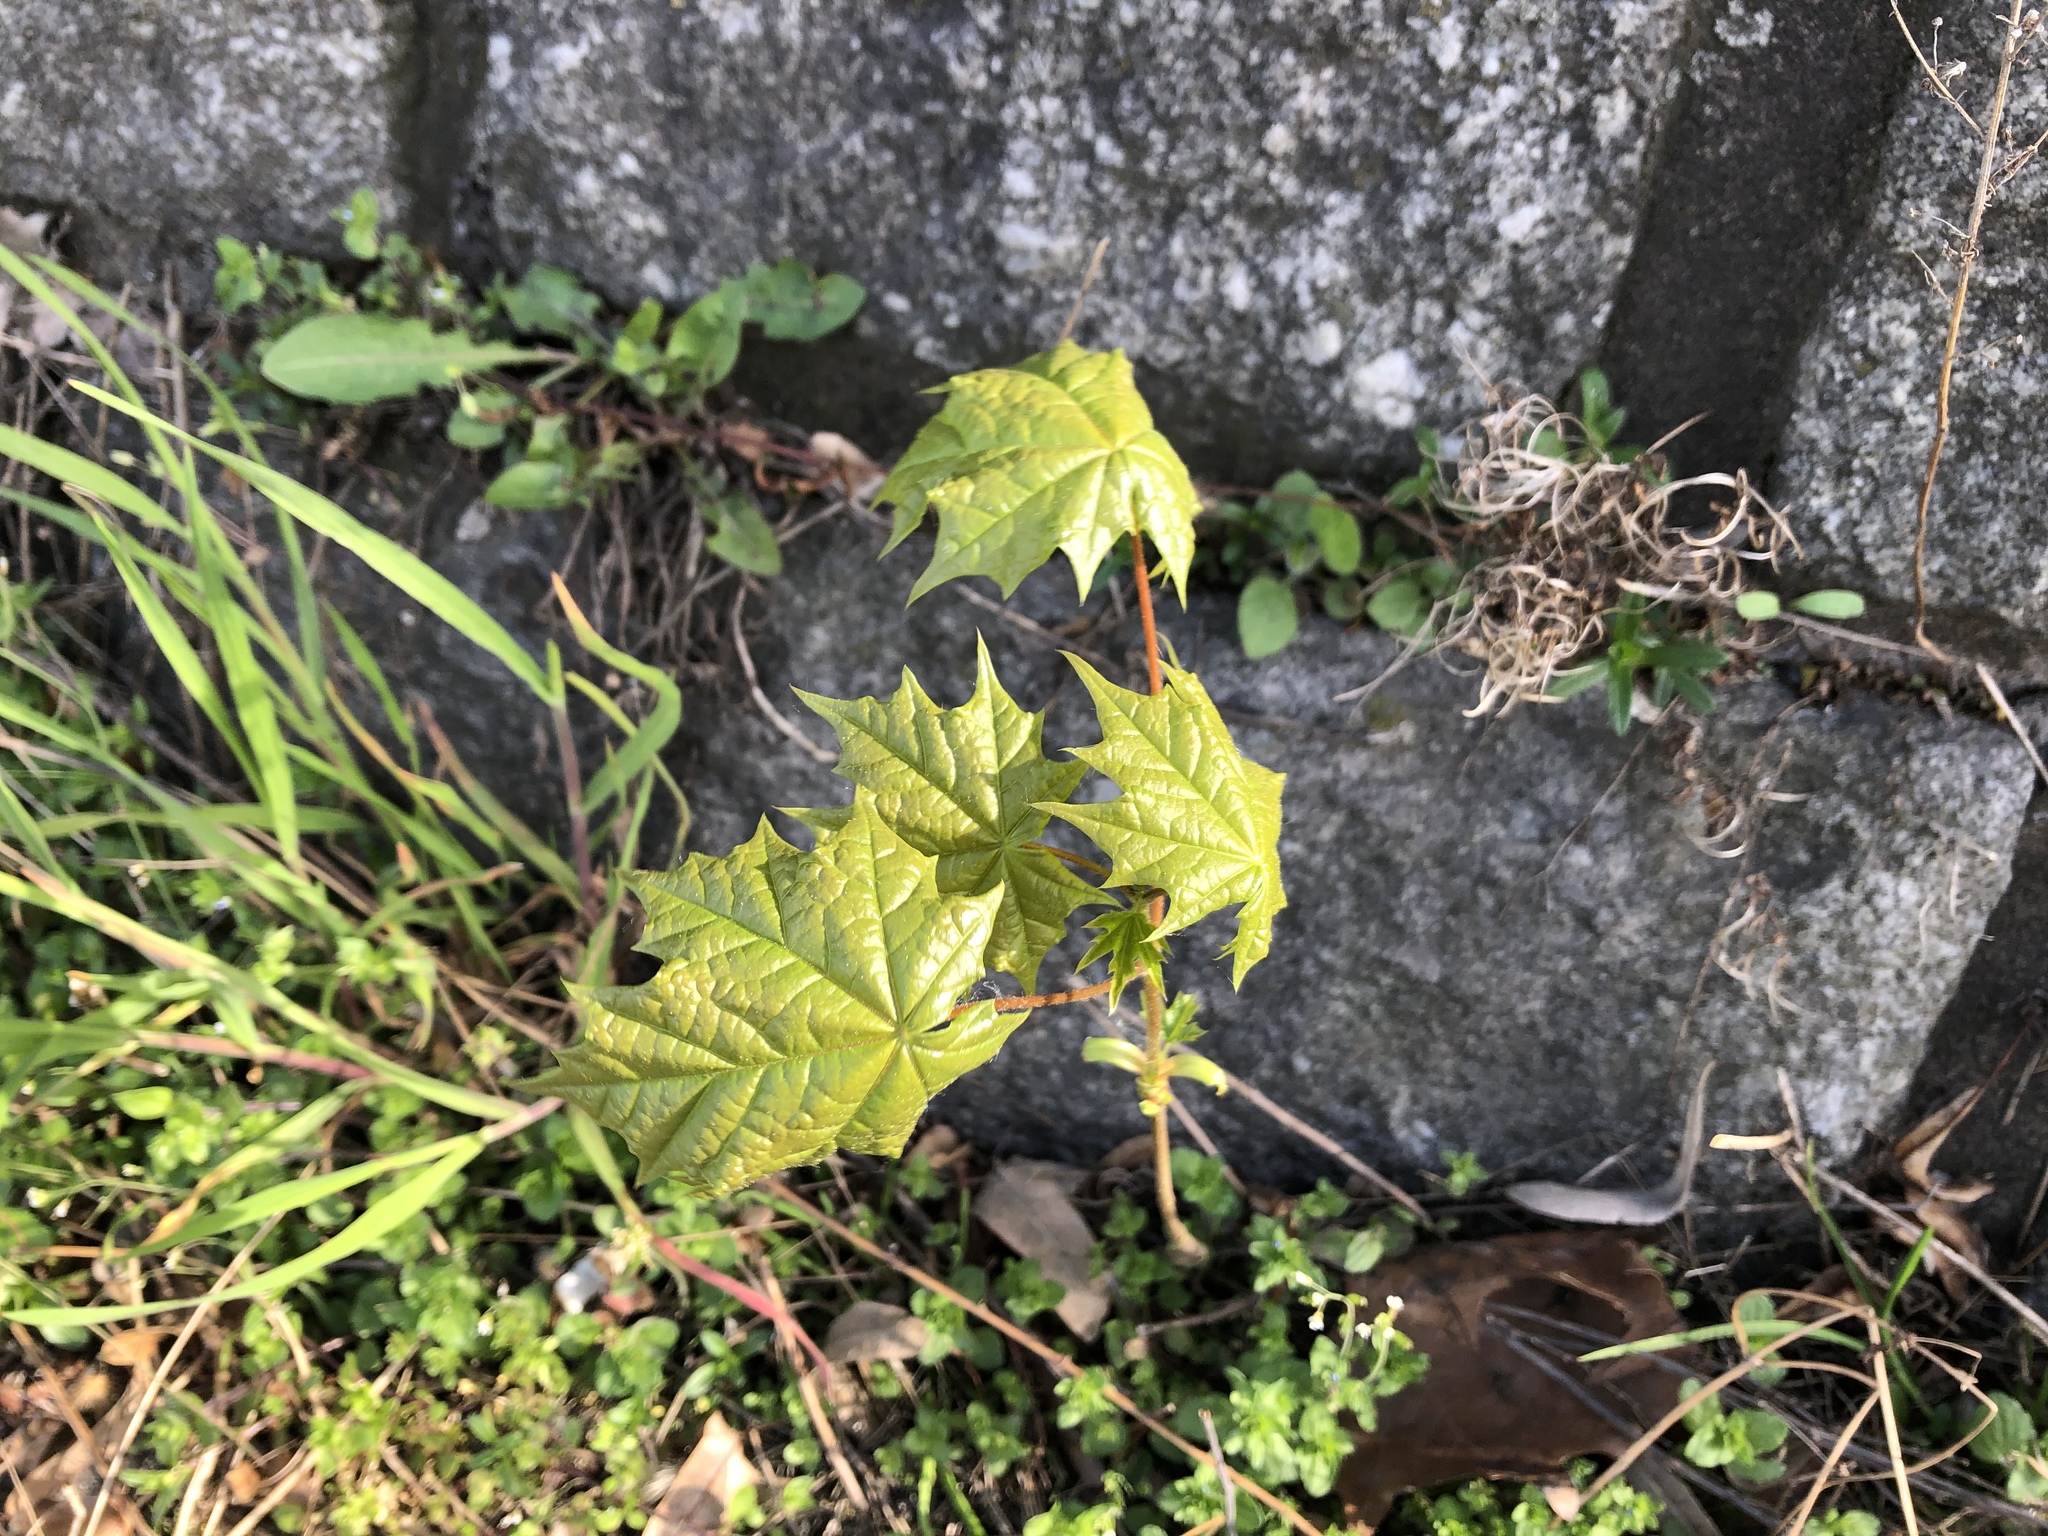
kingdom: Plantae
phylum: Tracheophyta
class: Magnoliopsida
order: Sapindales
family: Sapindaceae
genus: Acer
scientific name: Acer platanoides
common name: Norway maple
